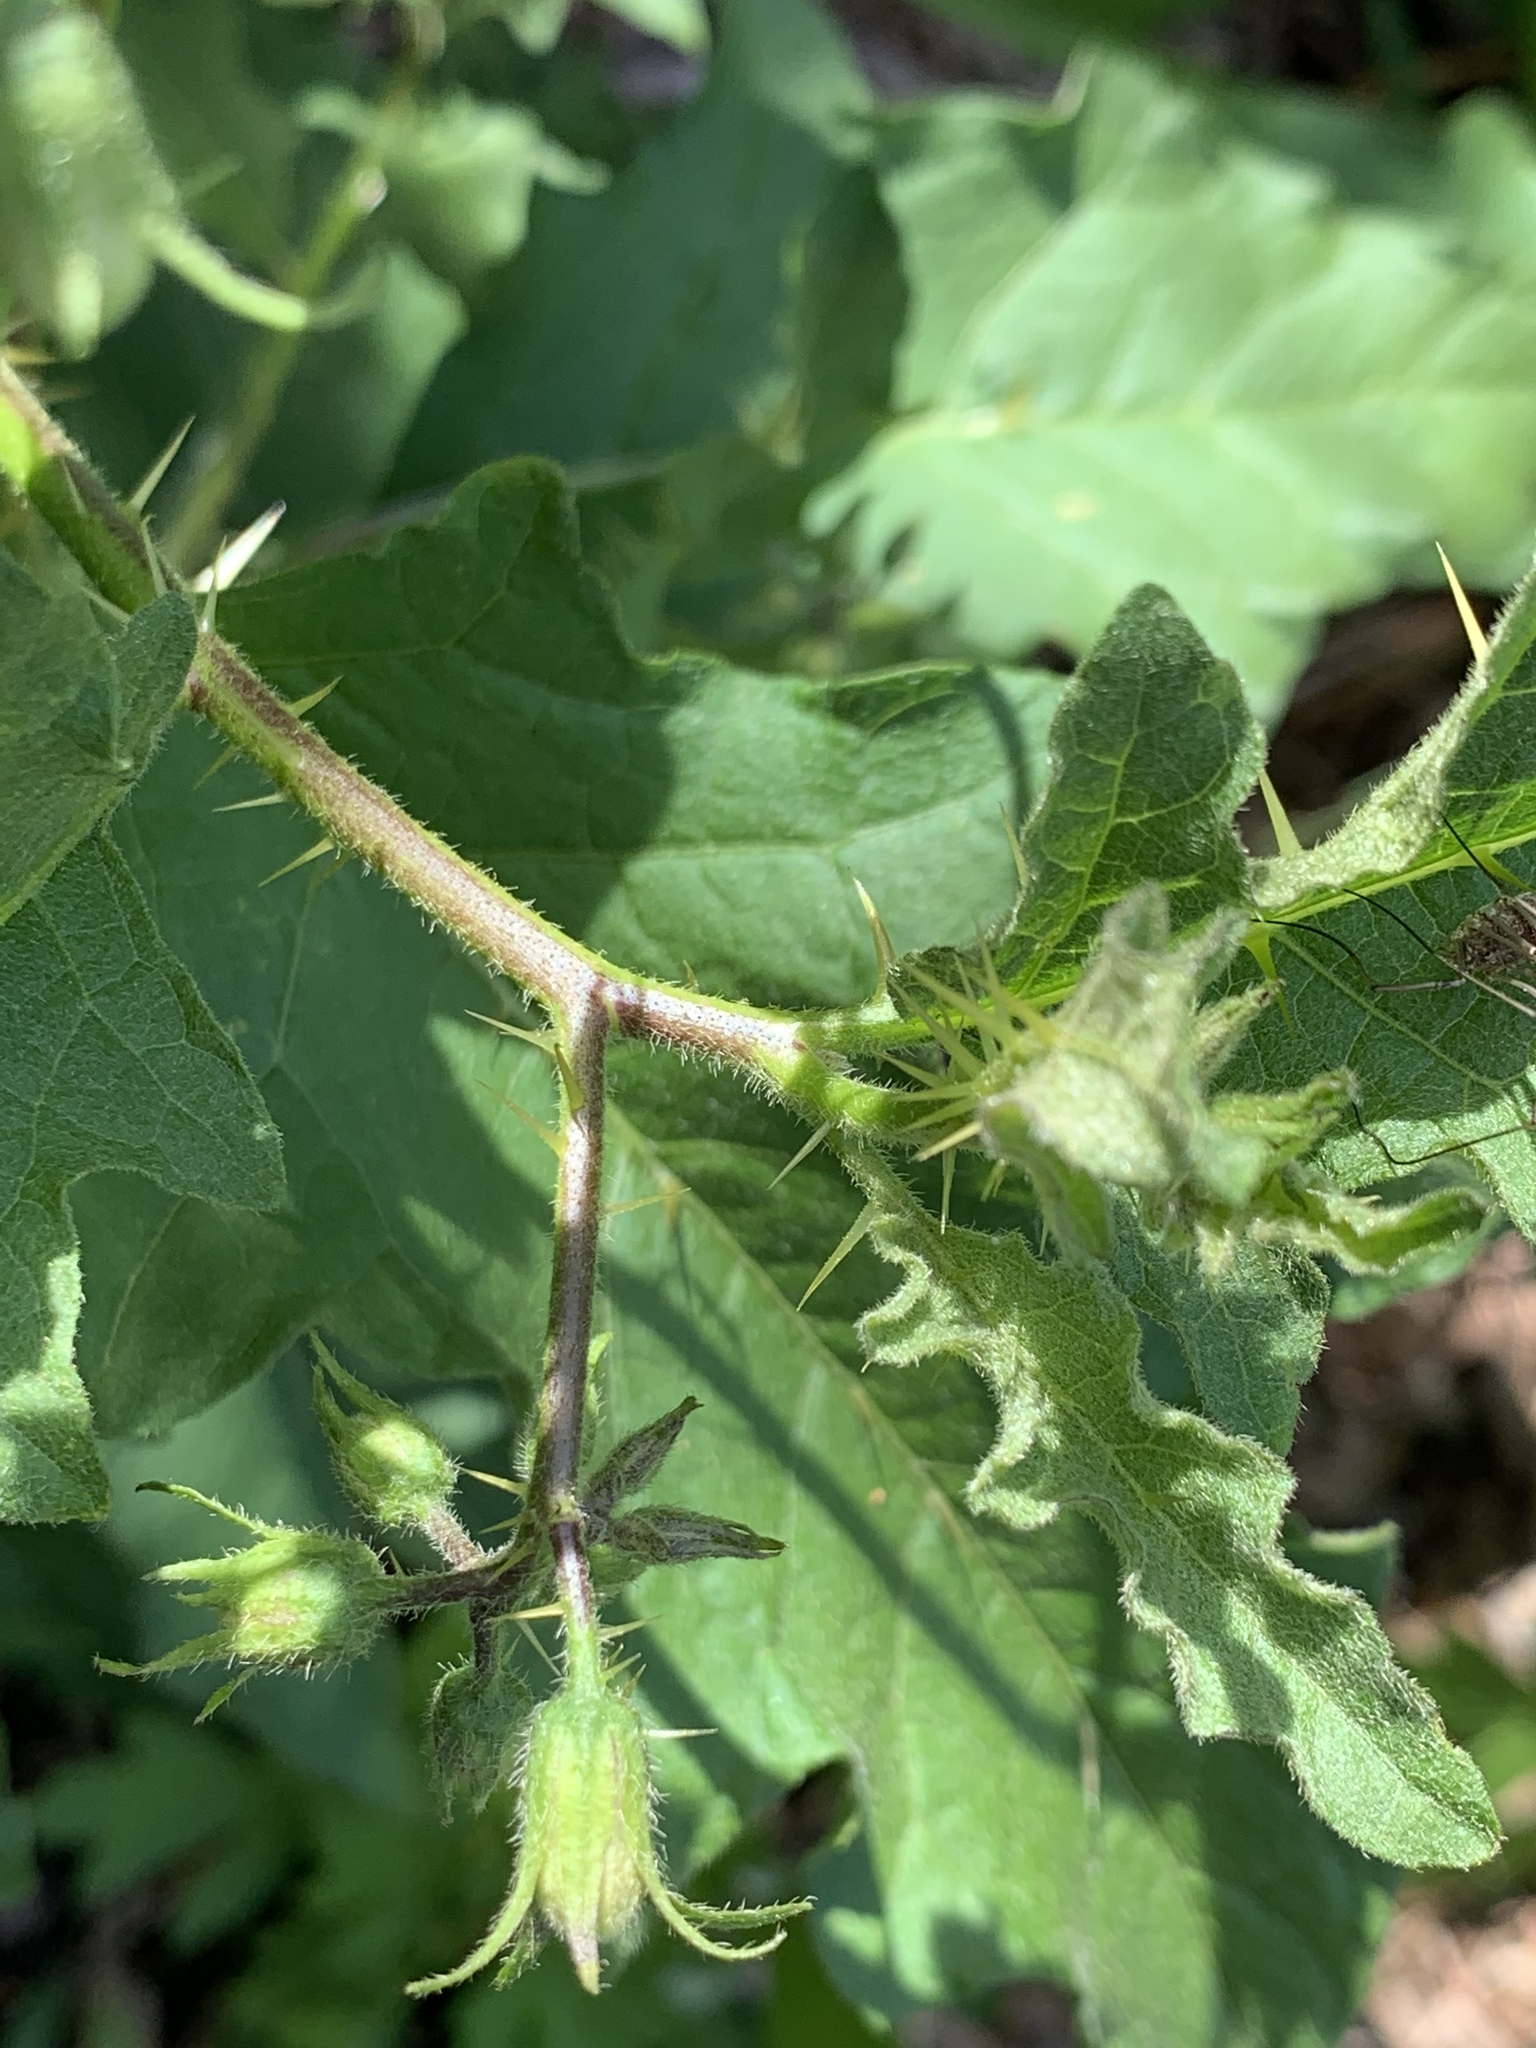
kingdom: Plantae
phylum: Tracheophyta
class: Magnoliopsida
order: Solanales
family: Solanaceae
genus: Solanum
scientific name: Solanum carolinense
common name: Horse-nettle
